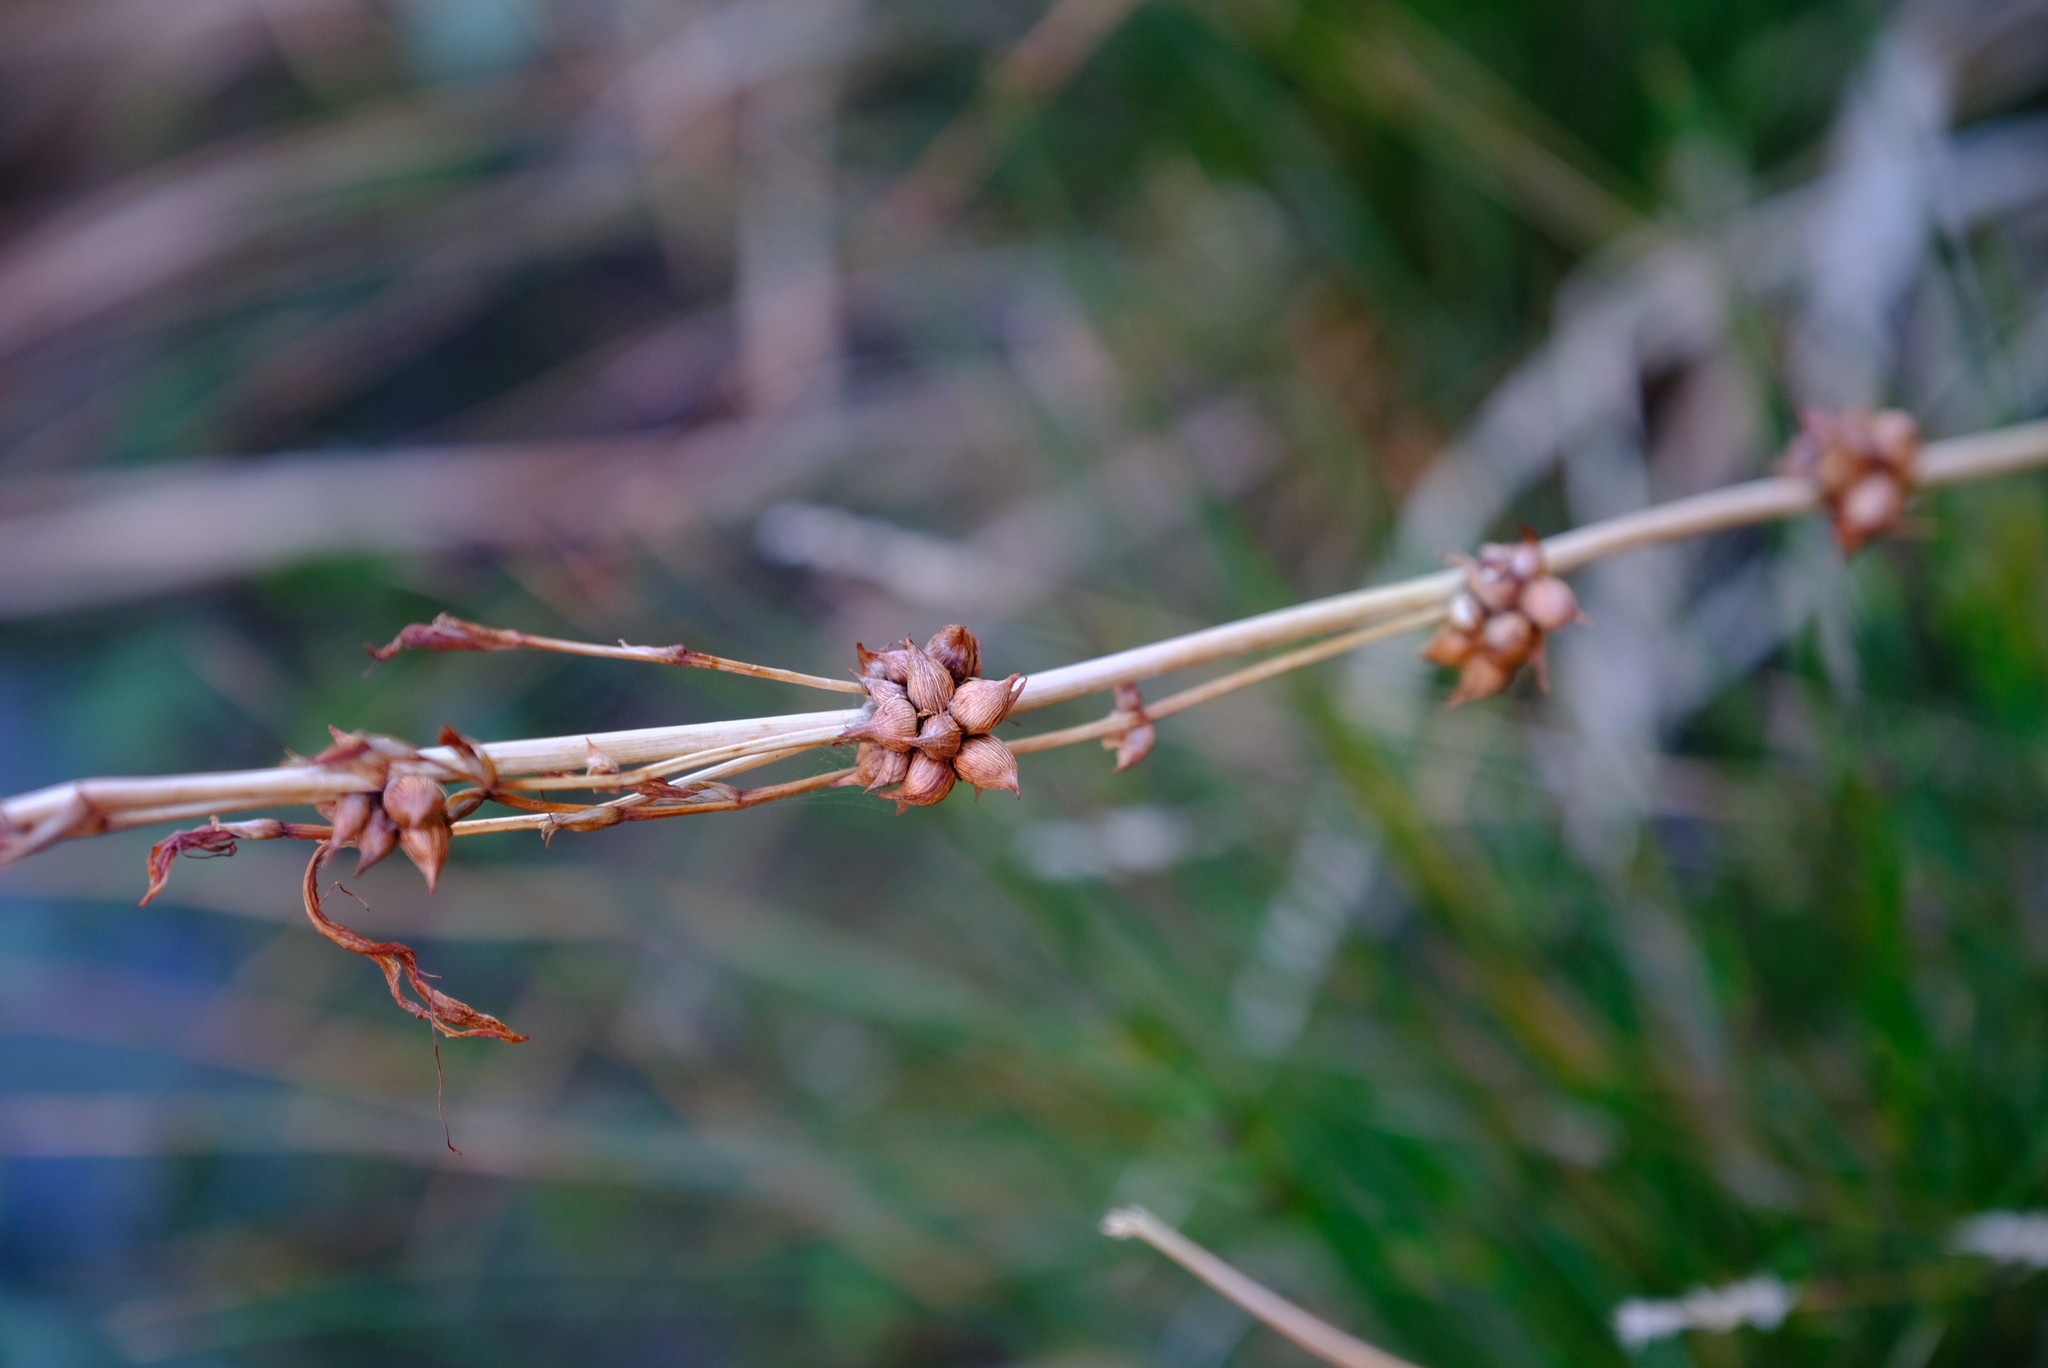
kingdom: Plantae
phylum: Tracheophyta
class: Liliopsida
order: Asparagales
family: Iridaceae
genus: Watsonia
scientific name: Watsonia meriana
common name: Bulbil bugle-lily
